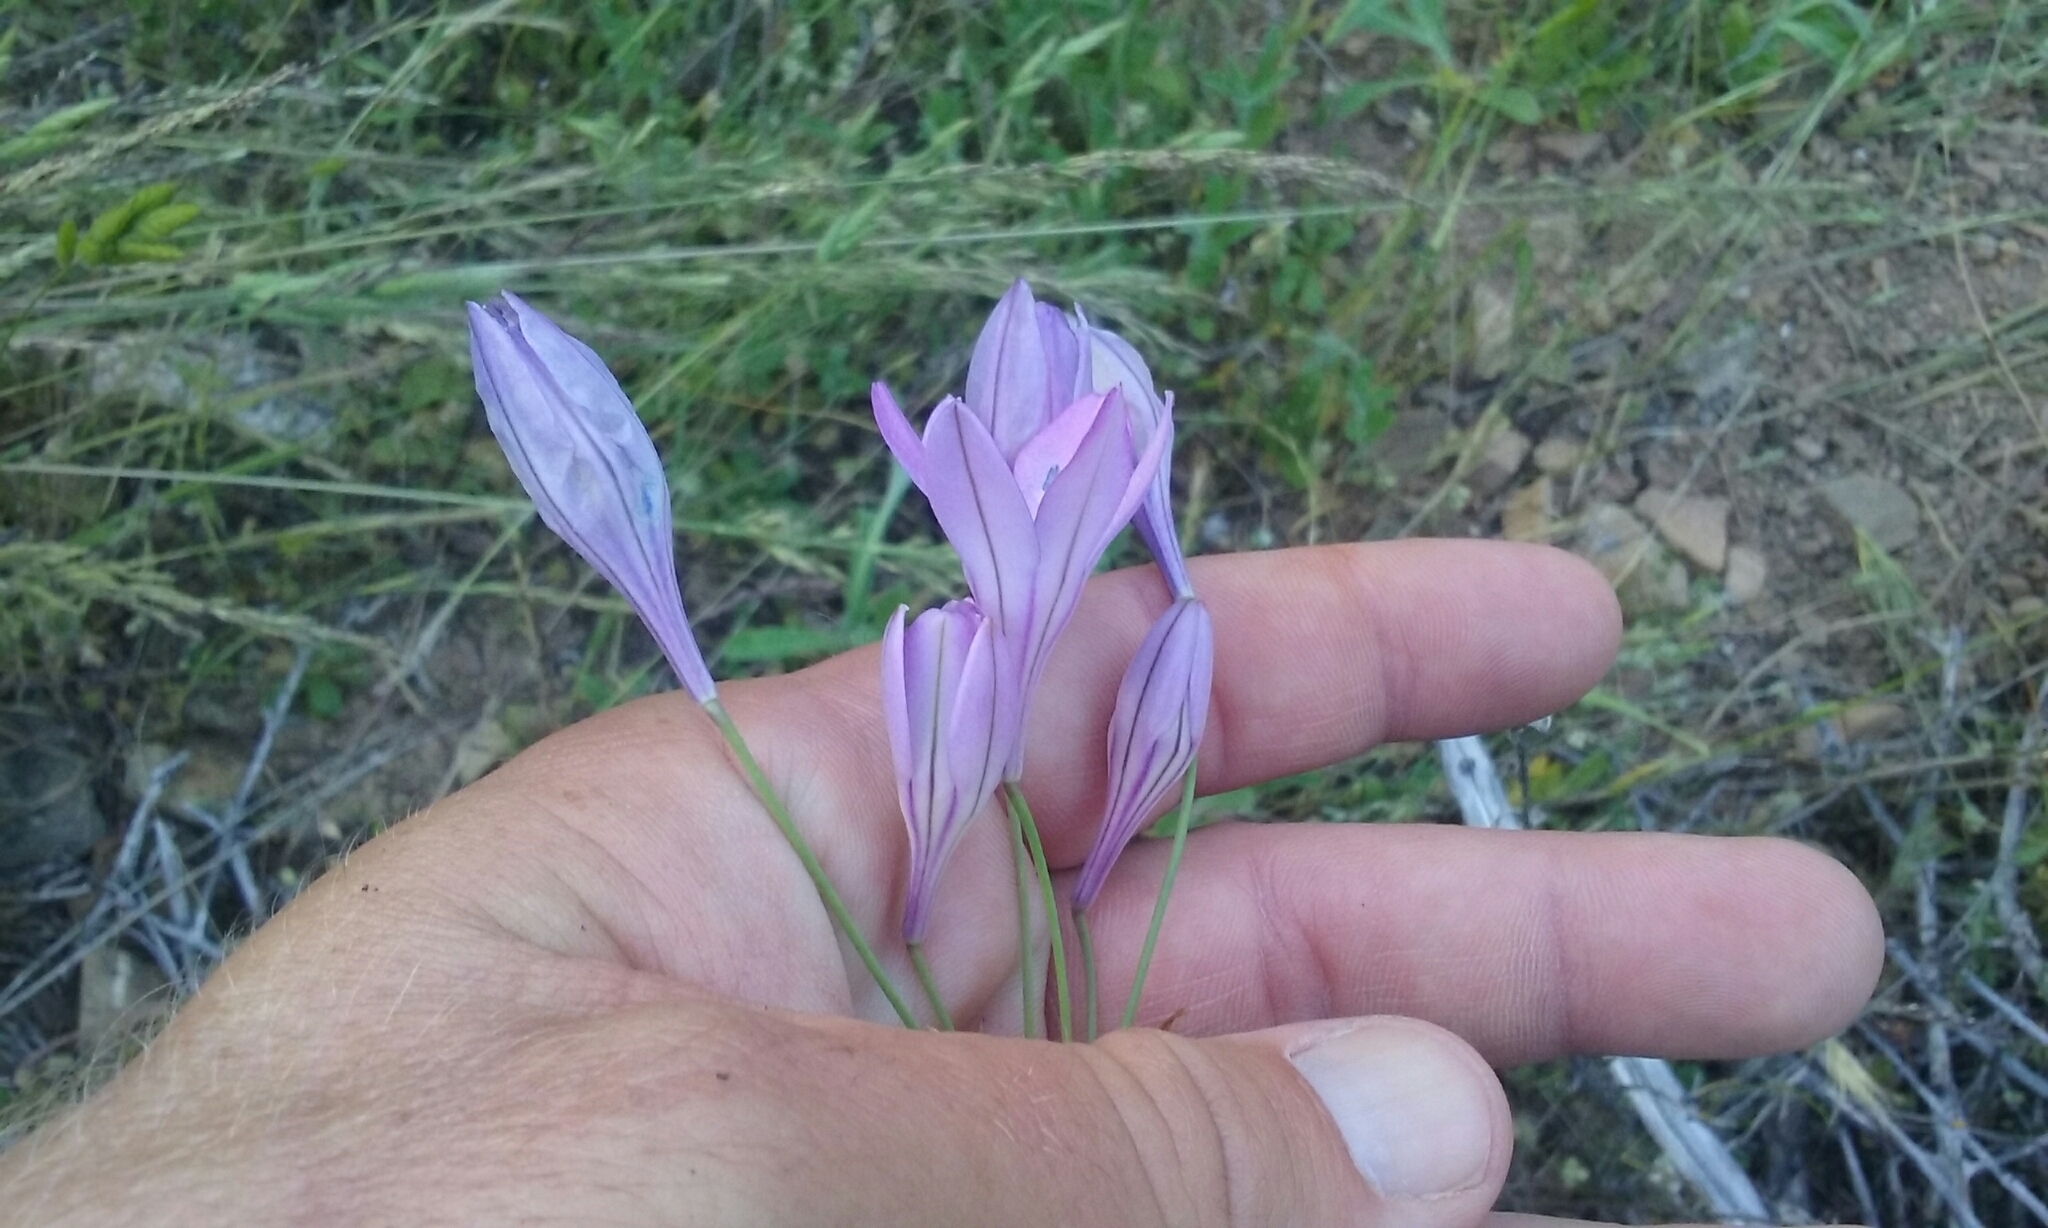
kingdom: Plantae
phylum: Tracheophyta
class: Liliopsida
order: Asparagales
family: Asparagaceae
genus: Triteleia
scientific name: Triteleia laxa
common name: Triplet-lily
